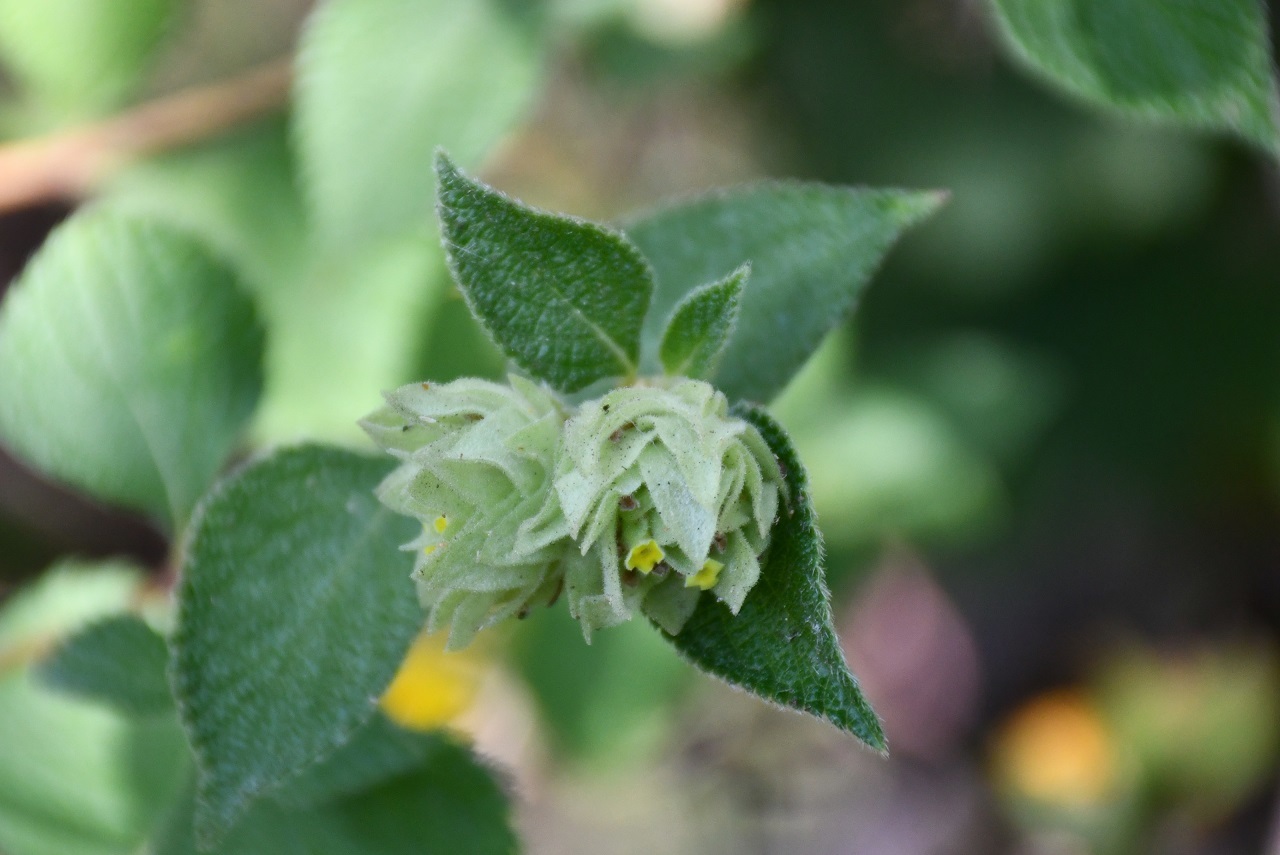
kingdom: Plantae
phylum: Tracheophyta
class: Magnoliopsida
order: Lamiales
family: Verbenaceae
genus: Lippia
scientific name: Lippia bracteosa
